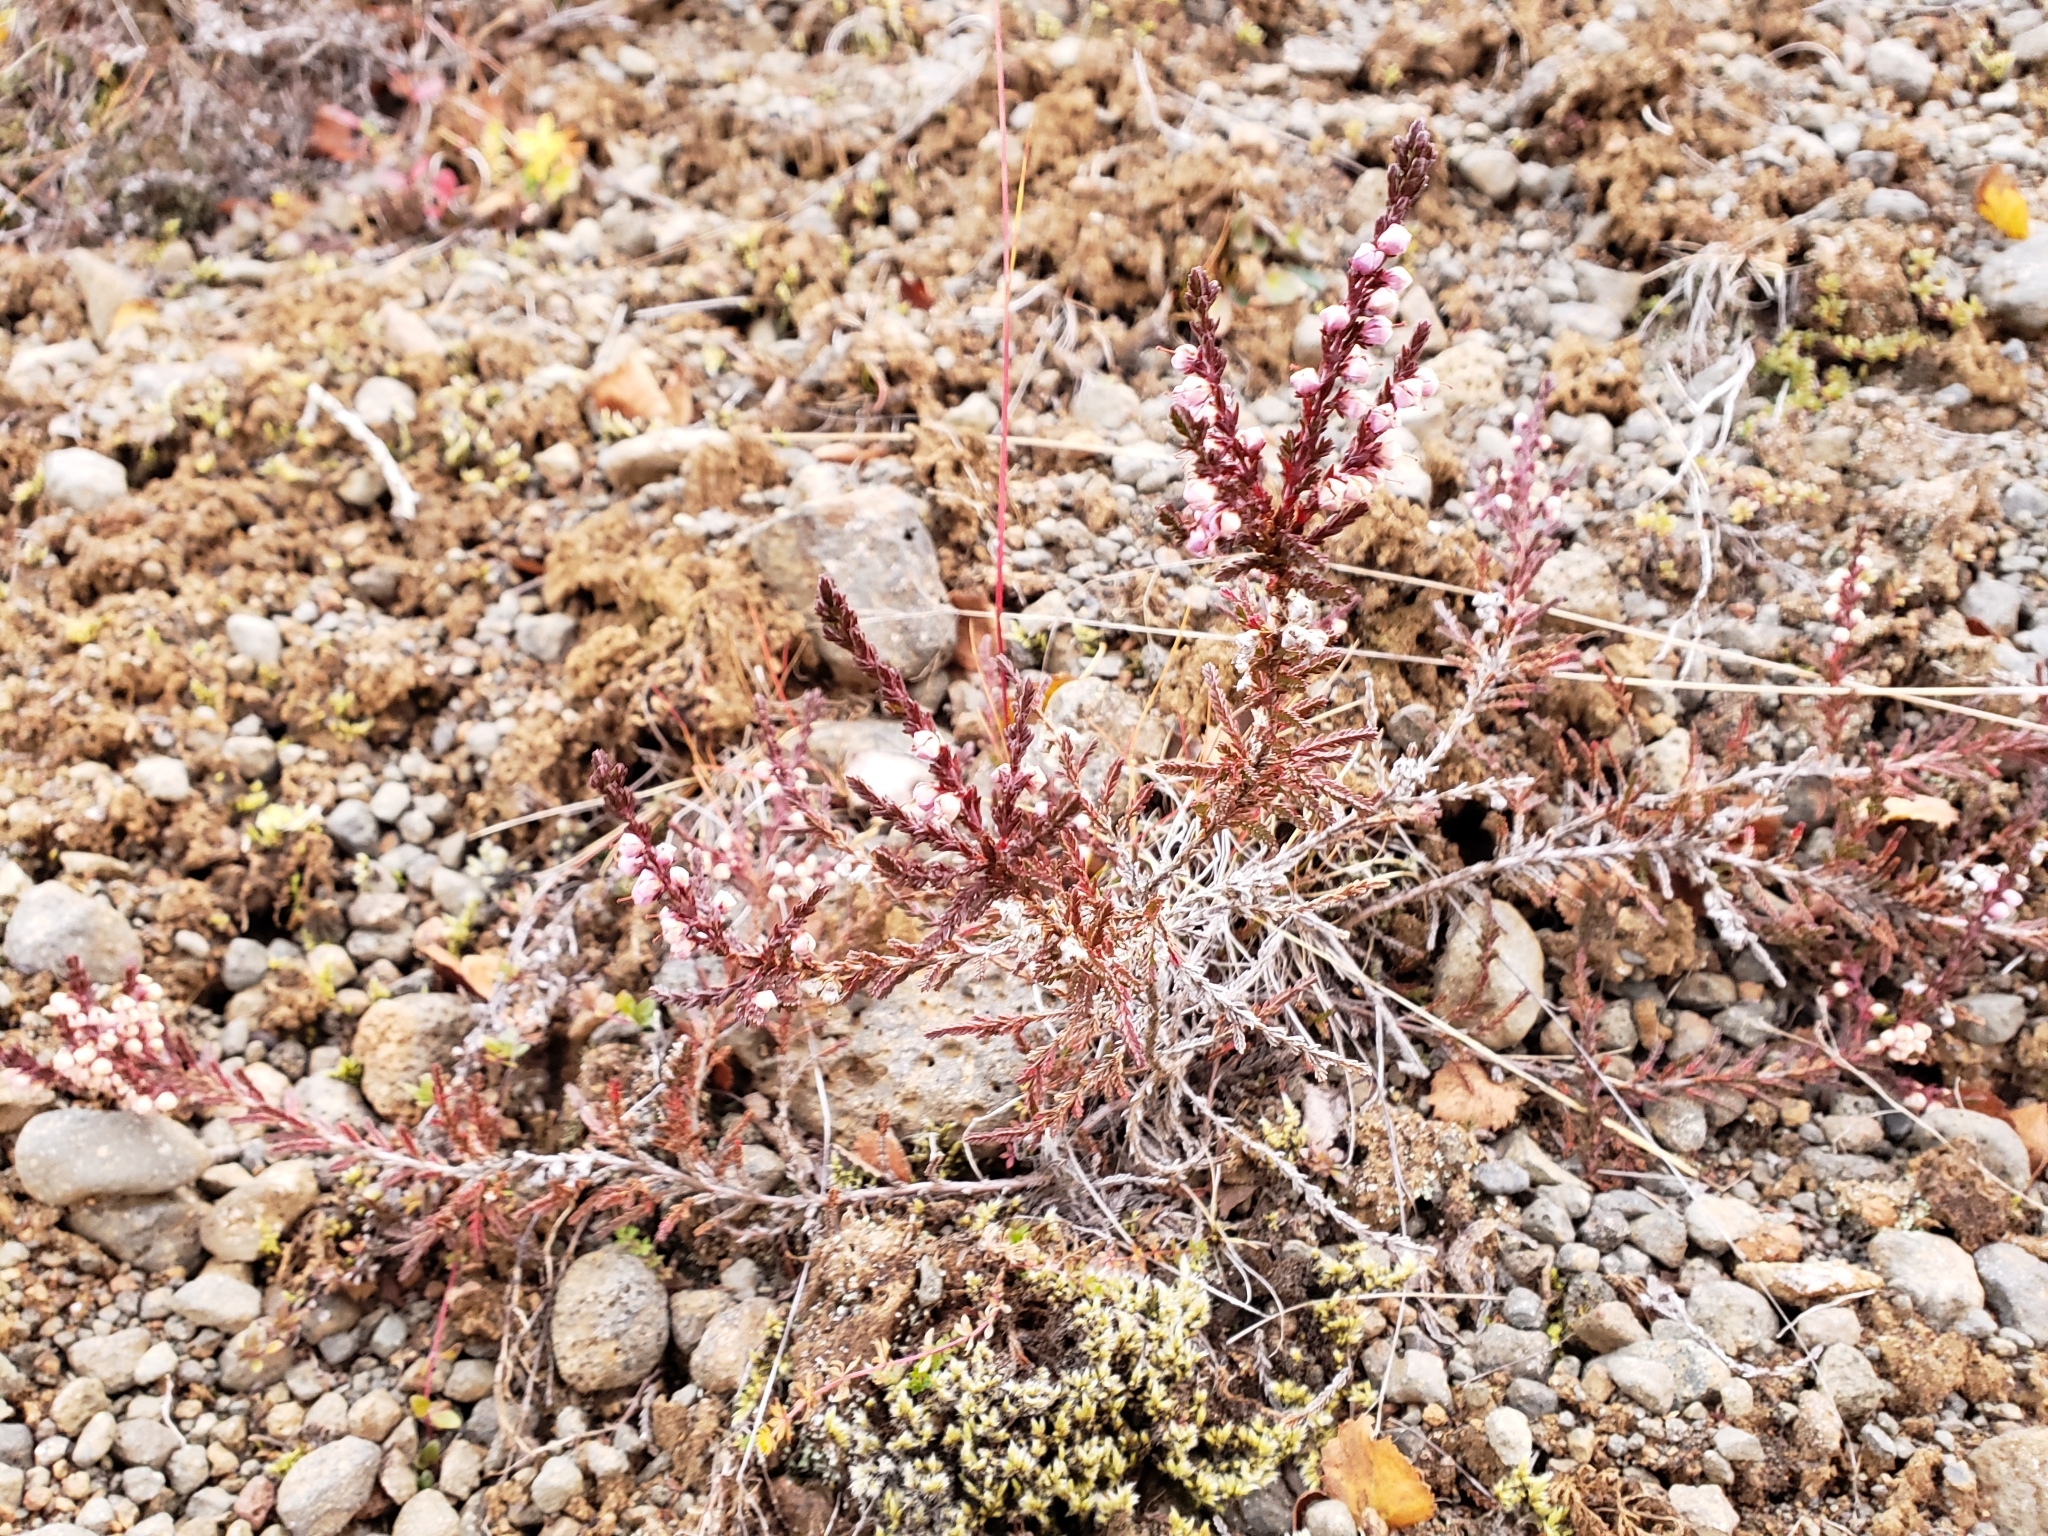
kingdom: Plantae
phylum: Tracheophyta
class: Magnoliopsida
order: Ericales
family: Ericaceae
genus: Calluna
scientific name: Calluna vulgaris
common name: Heather
